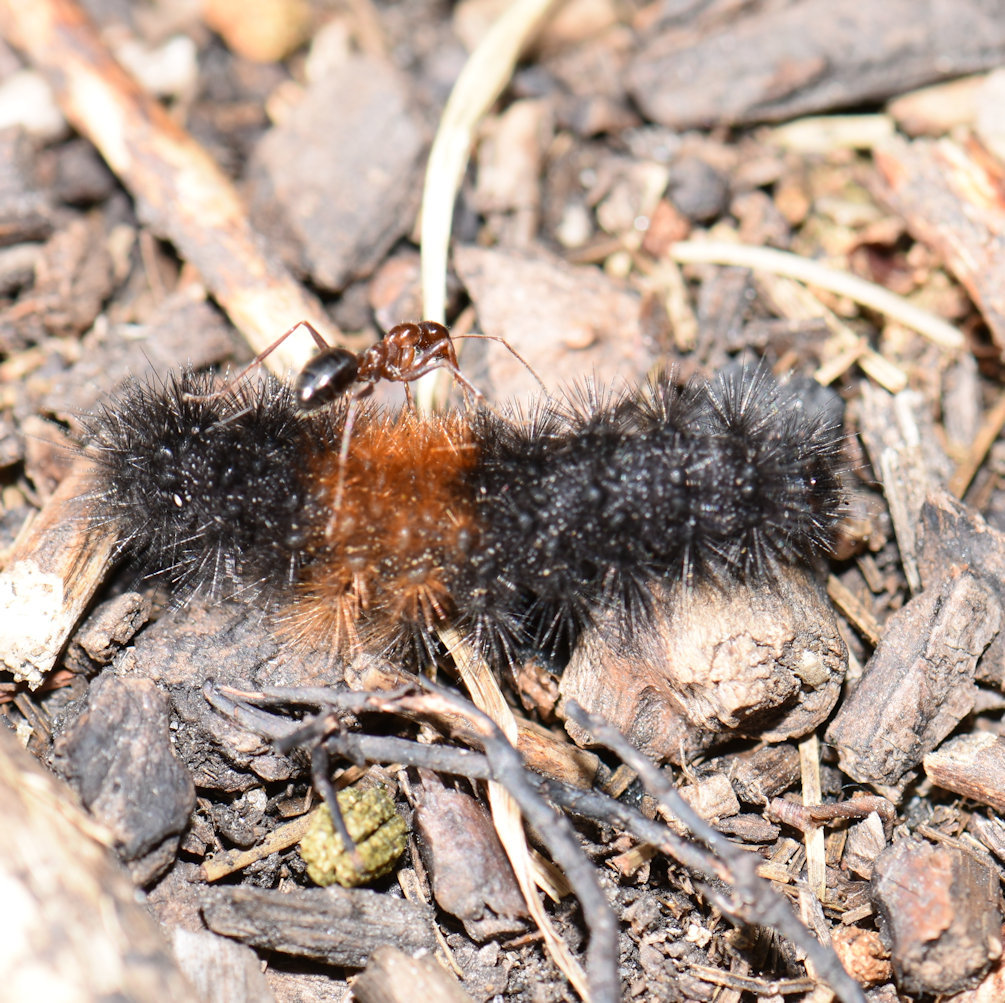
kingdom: Animalia
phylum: Arthropoda
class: Insecta
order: Lepidoptera
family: Erebidae
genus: Pyrrharctia
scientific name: Pyrrharctia isabella
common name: Isabella tiger moth
